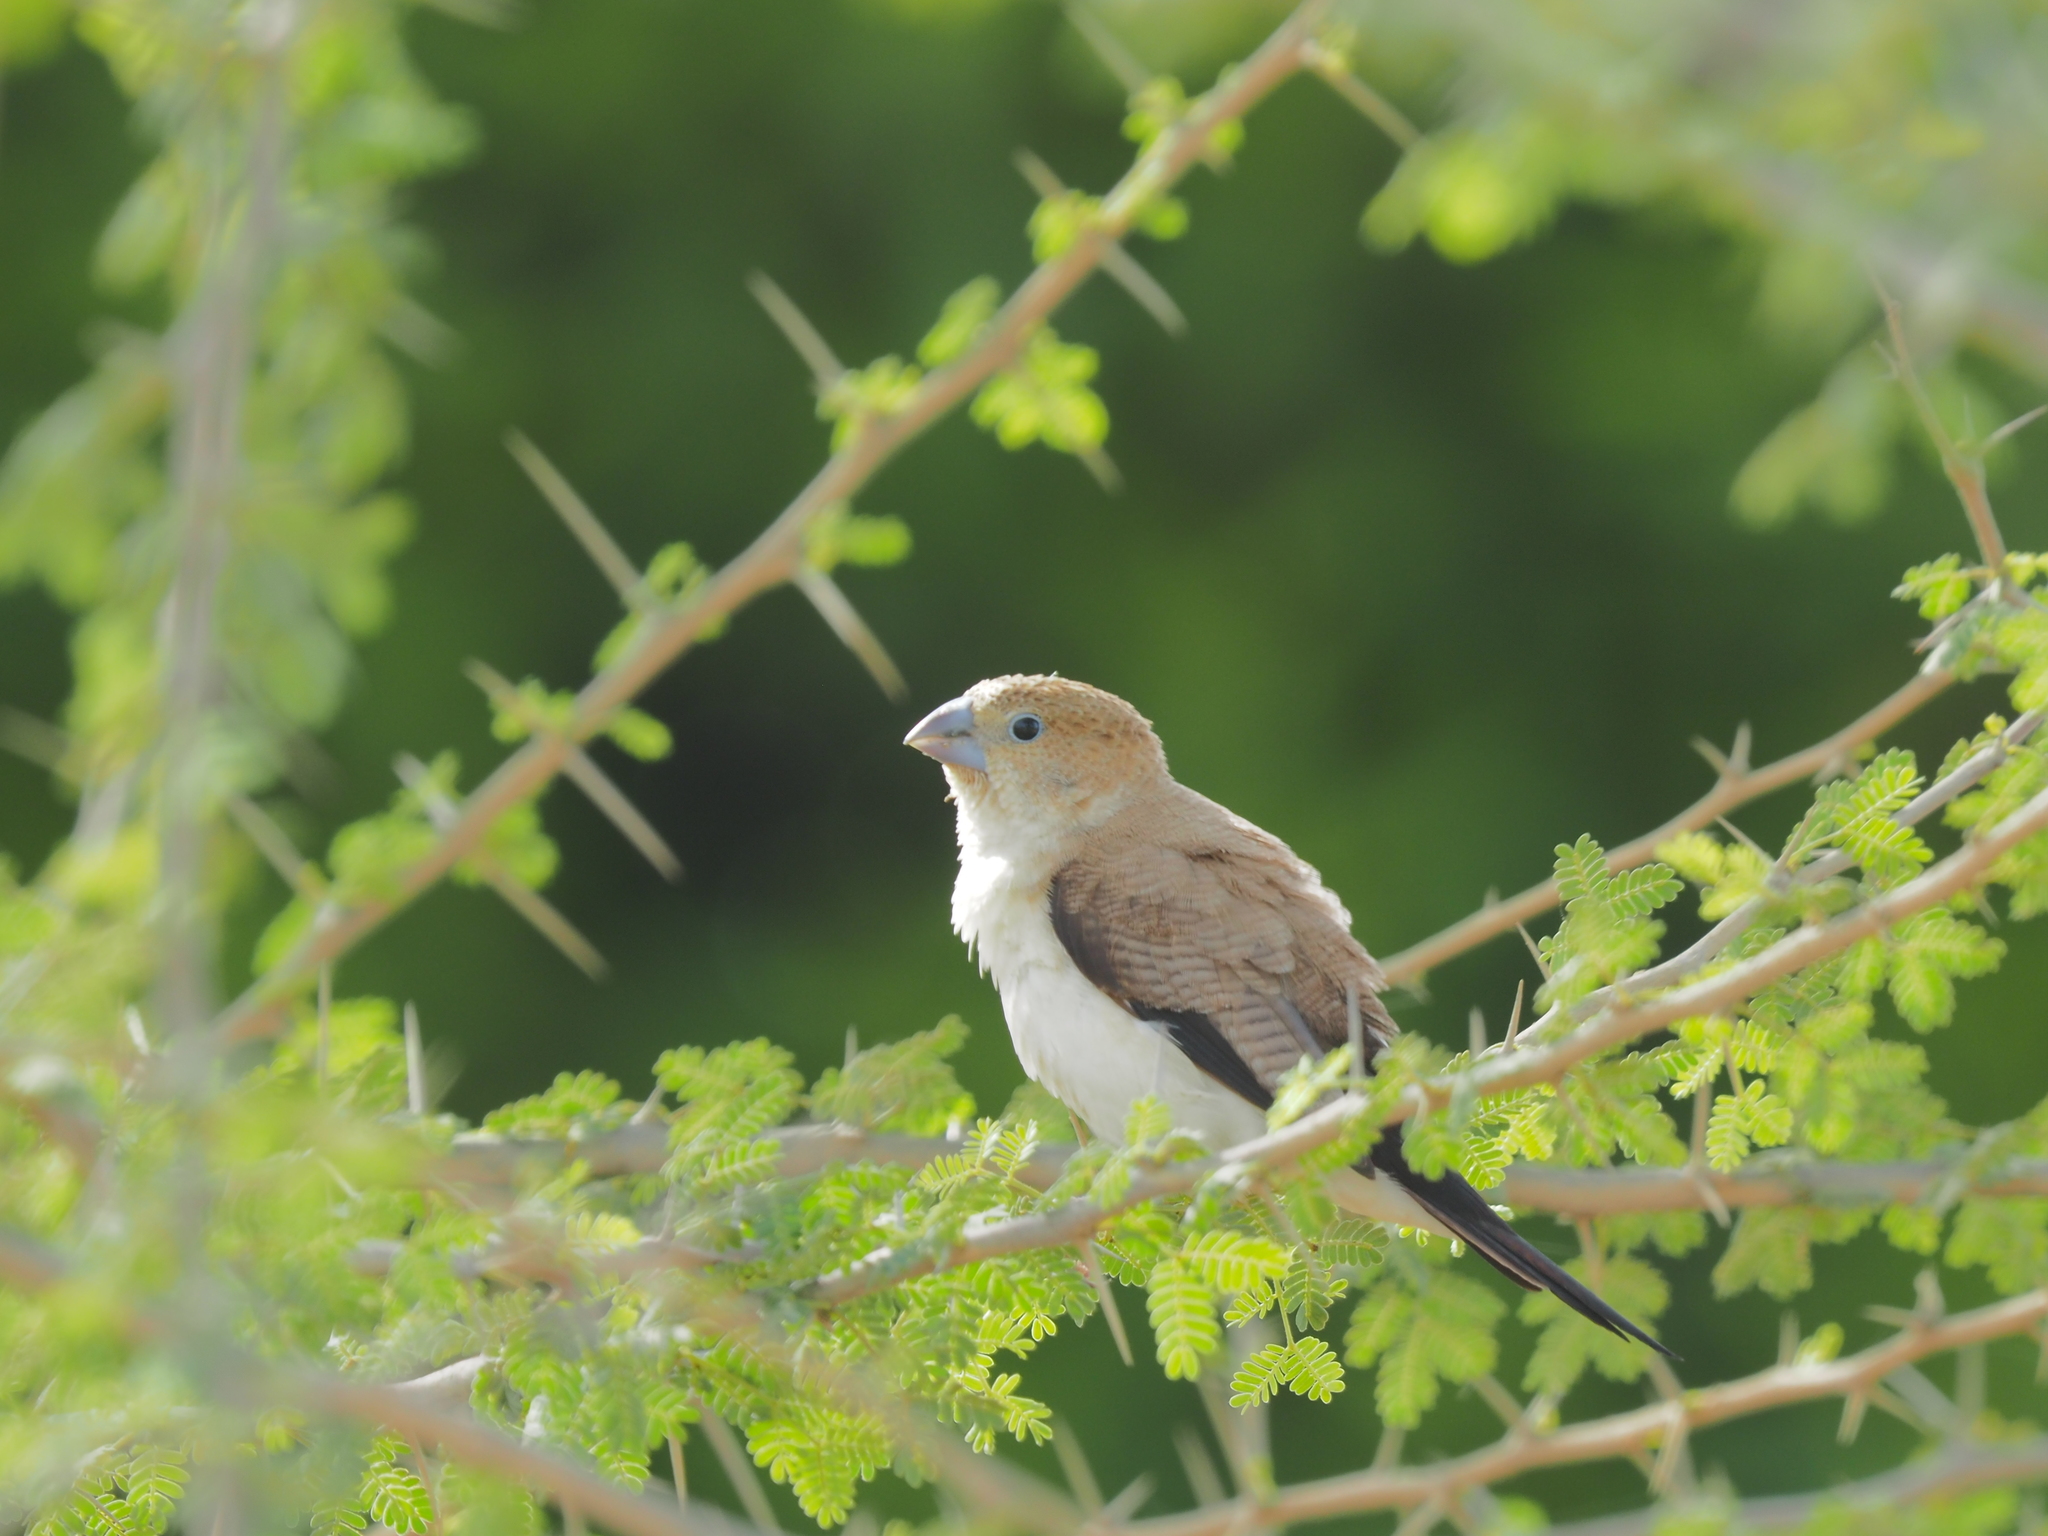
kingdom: Animalia
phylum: Chordata
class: Aves
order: Passeriformes
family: Estrildidae
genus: Euodice
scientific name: Euodice cantans
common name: African silverbill
